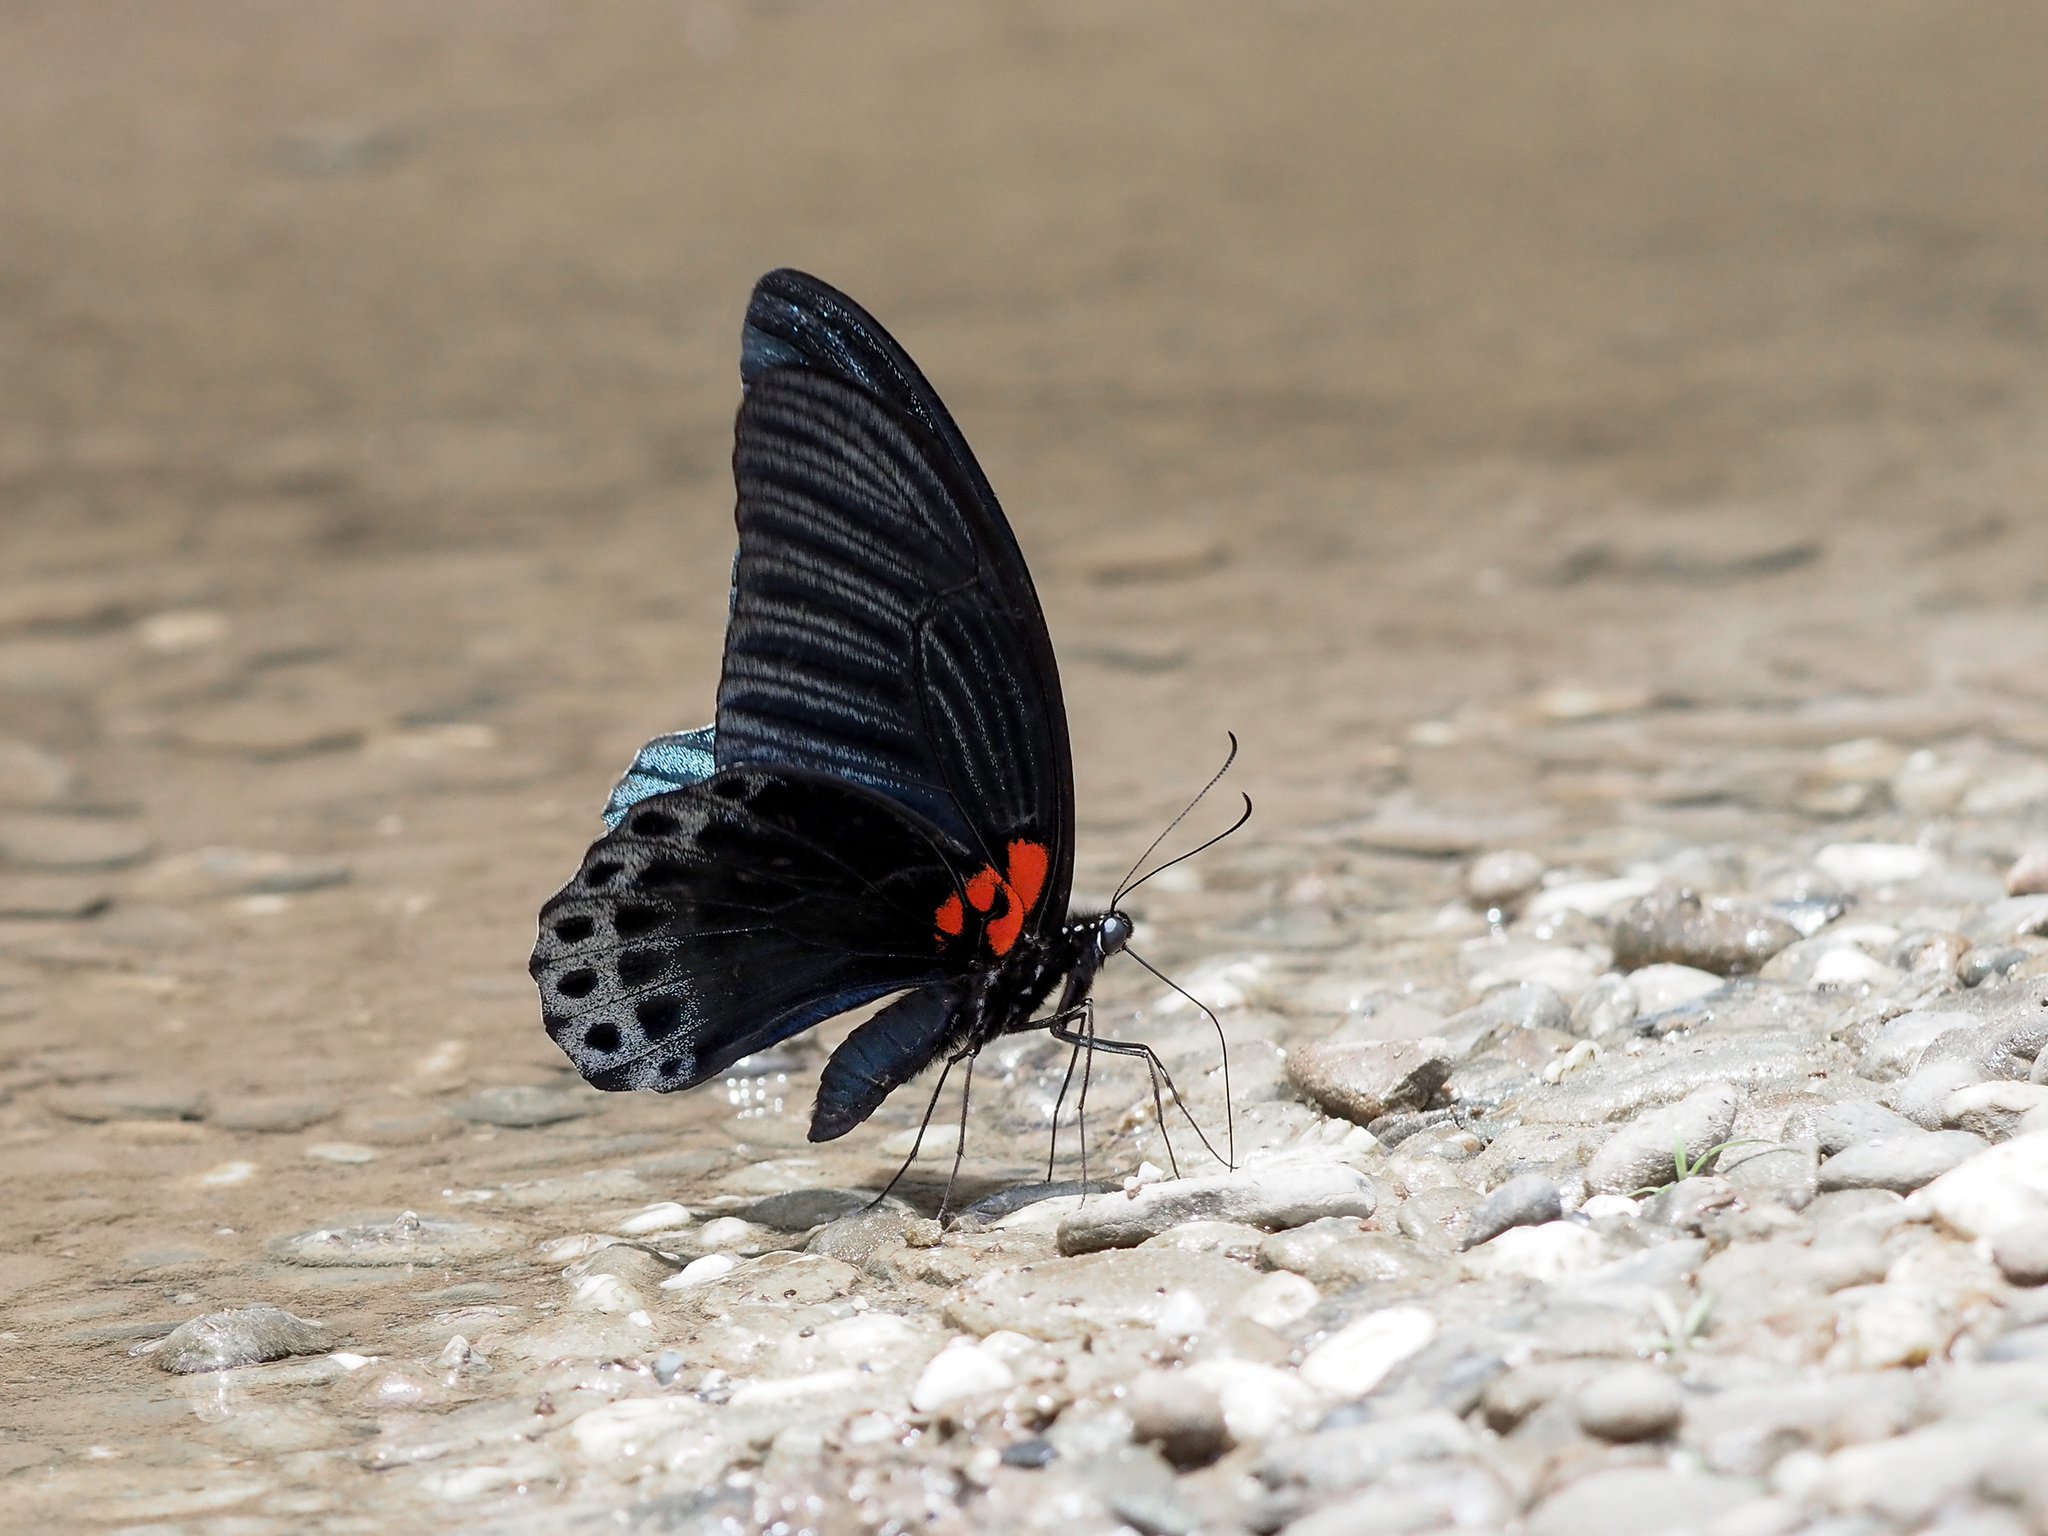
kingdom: Animalia
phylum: Arthropoda
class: Insecta
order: Lepidoptera
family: Papilionidae
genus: Papilio
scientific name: Papilio memnon
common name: Great mormon
